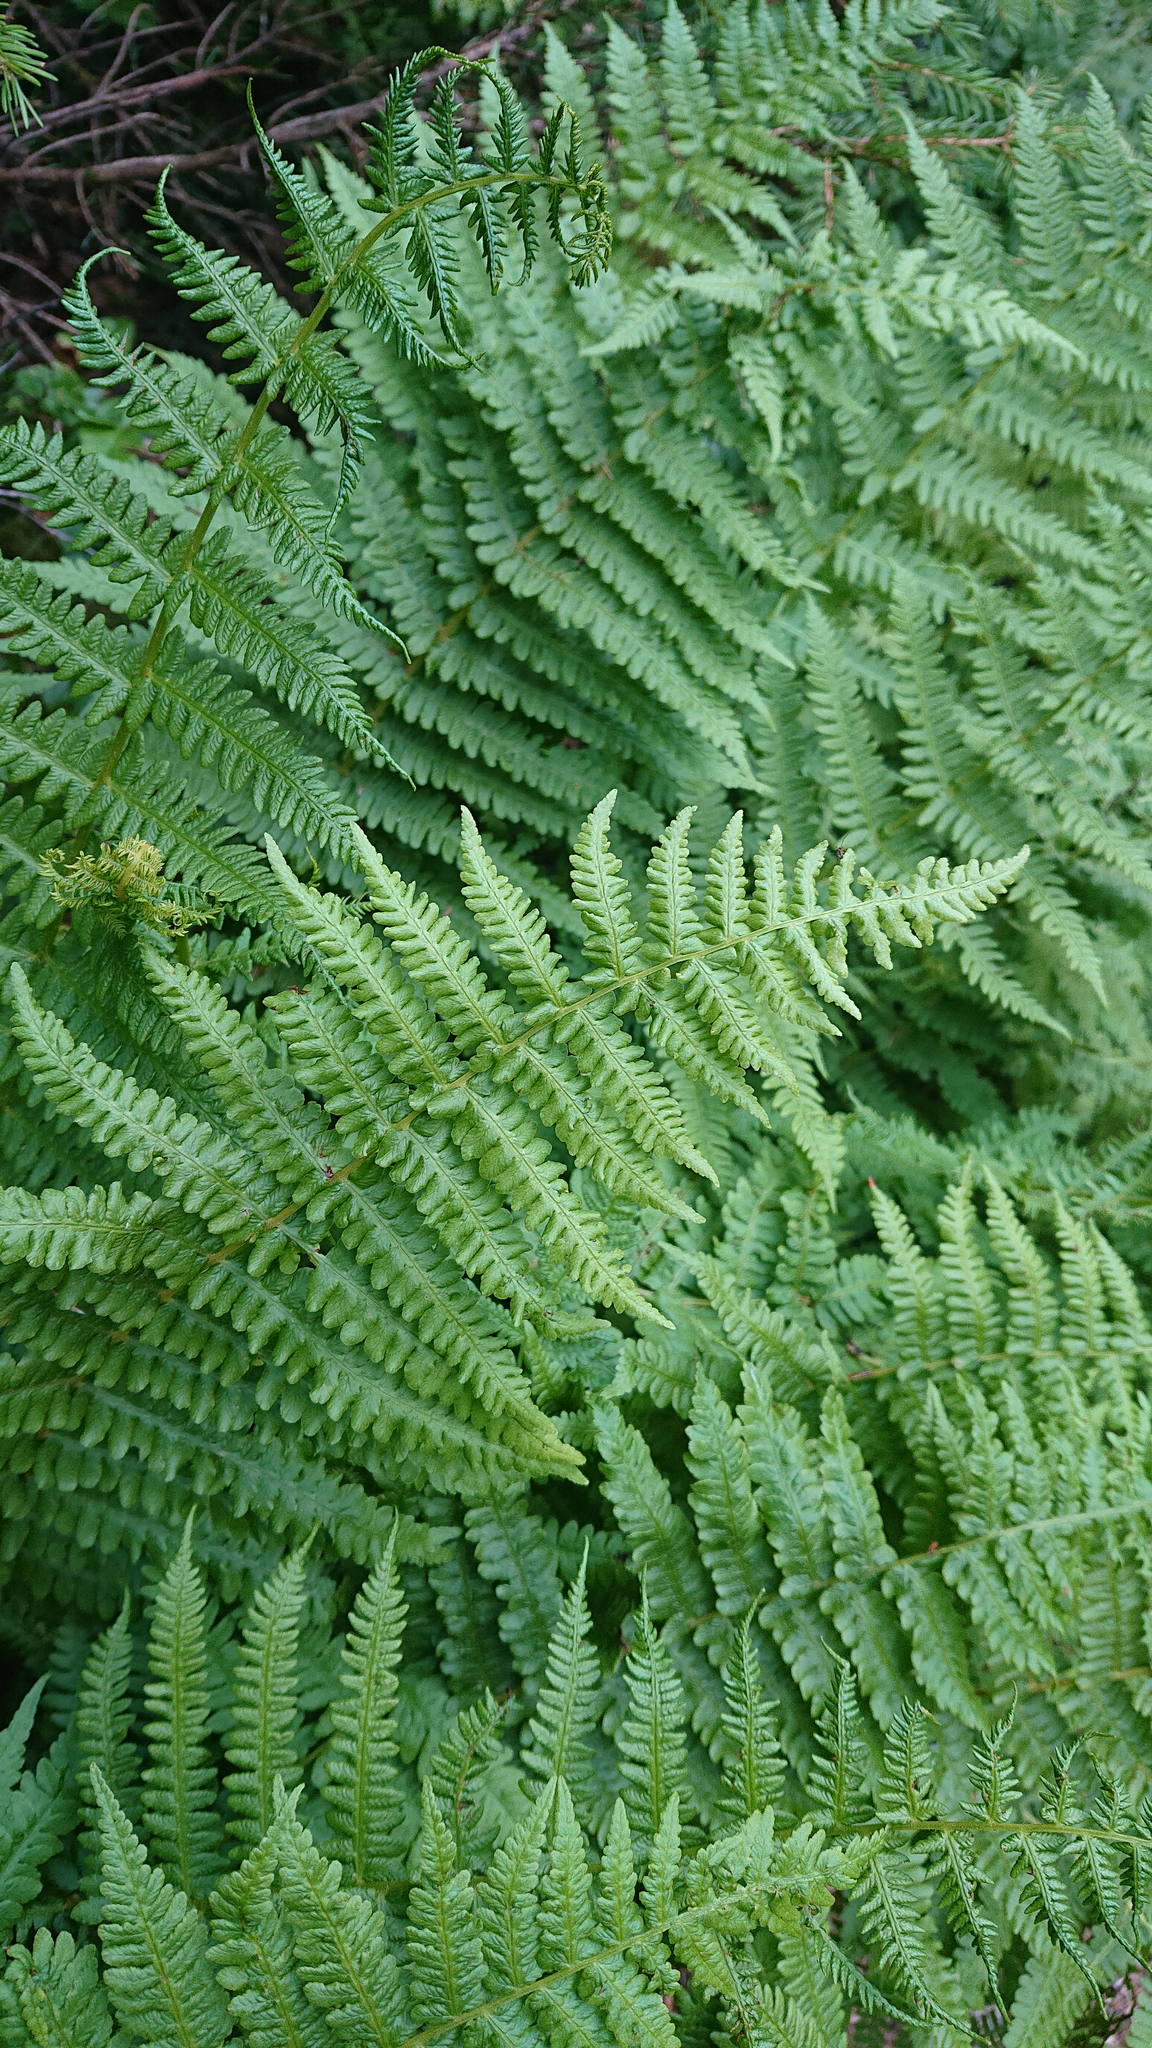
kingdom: Plantae
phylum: Tracheophyta
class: Polypodiopsida
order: Polypodiales
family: Thelypteridaceae
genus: Oreopteris
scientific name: Oreopteris limbosperma
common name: Lemon-scented fern
